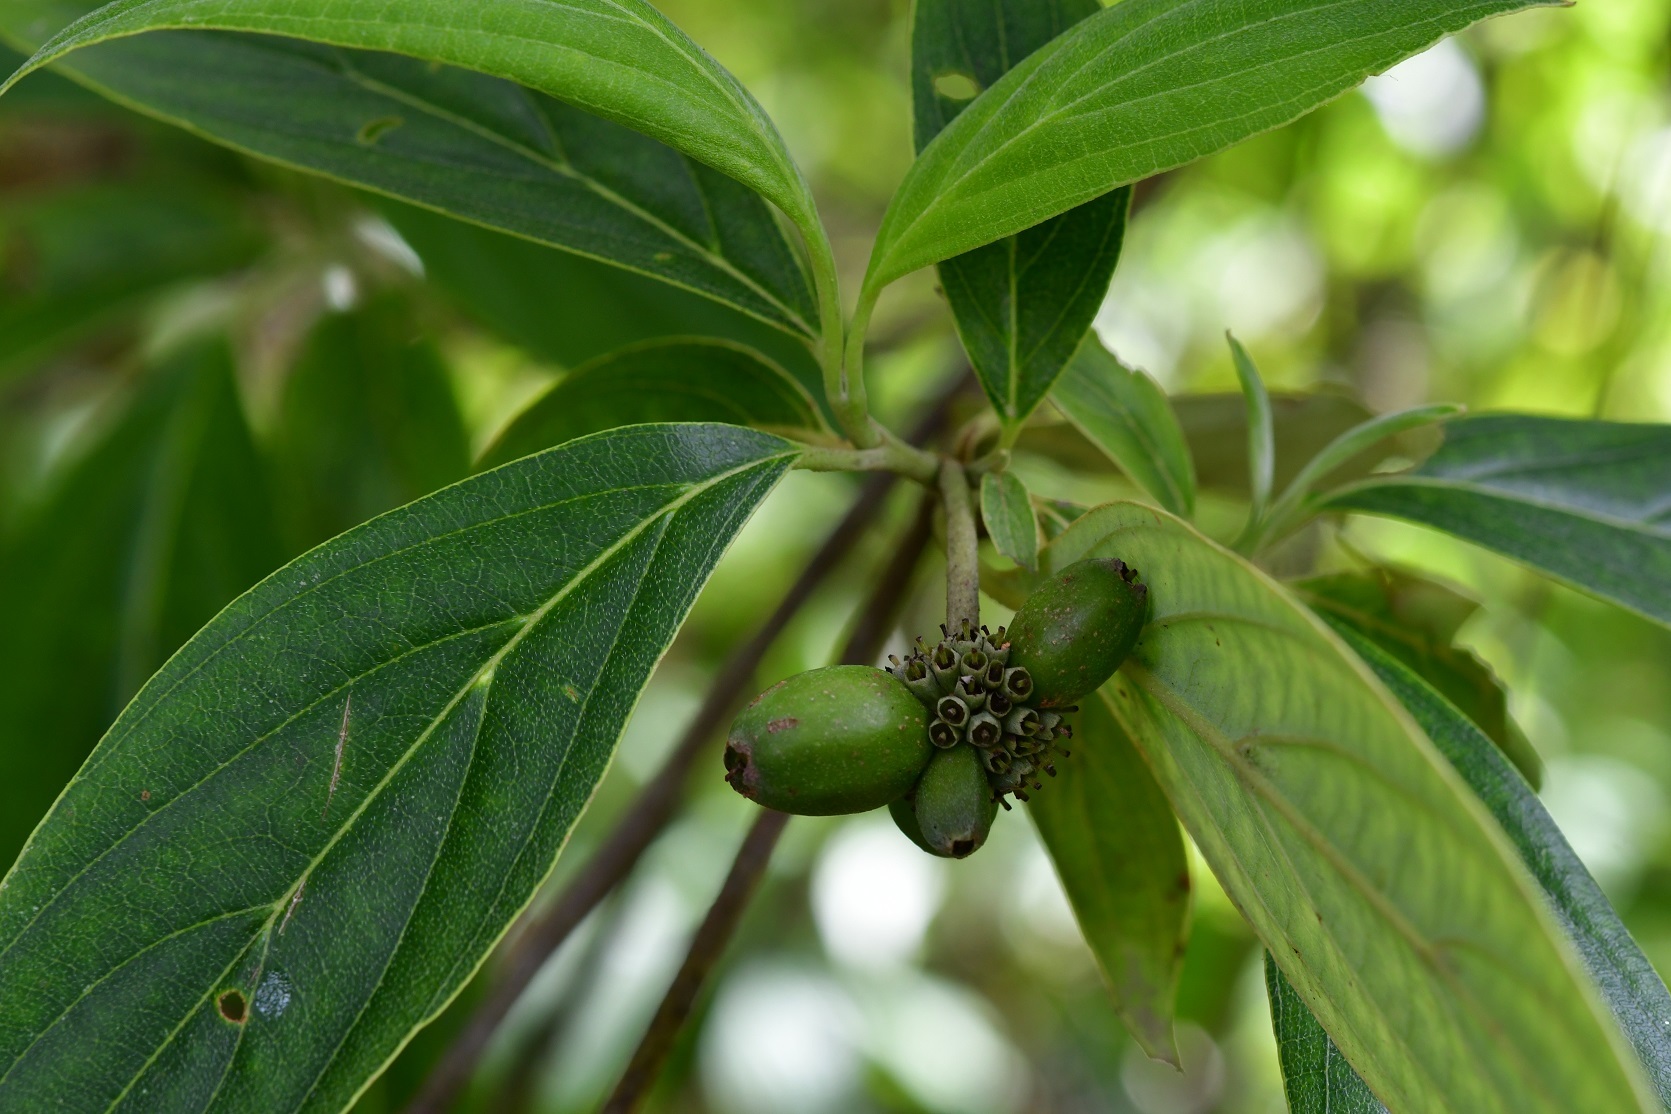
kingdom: Plantae
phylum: Tracheophyta
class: Magnoliopsida
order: Cornales
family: Cornaceae
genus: Cornus
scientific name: Cornus disciflora
